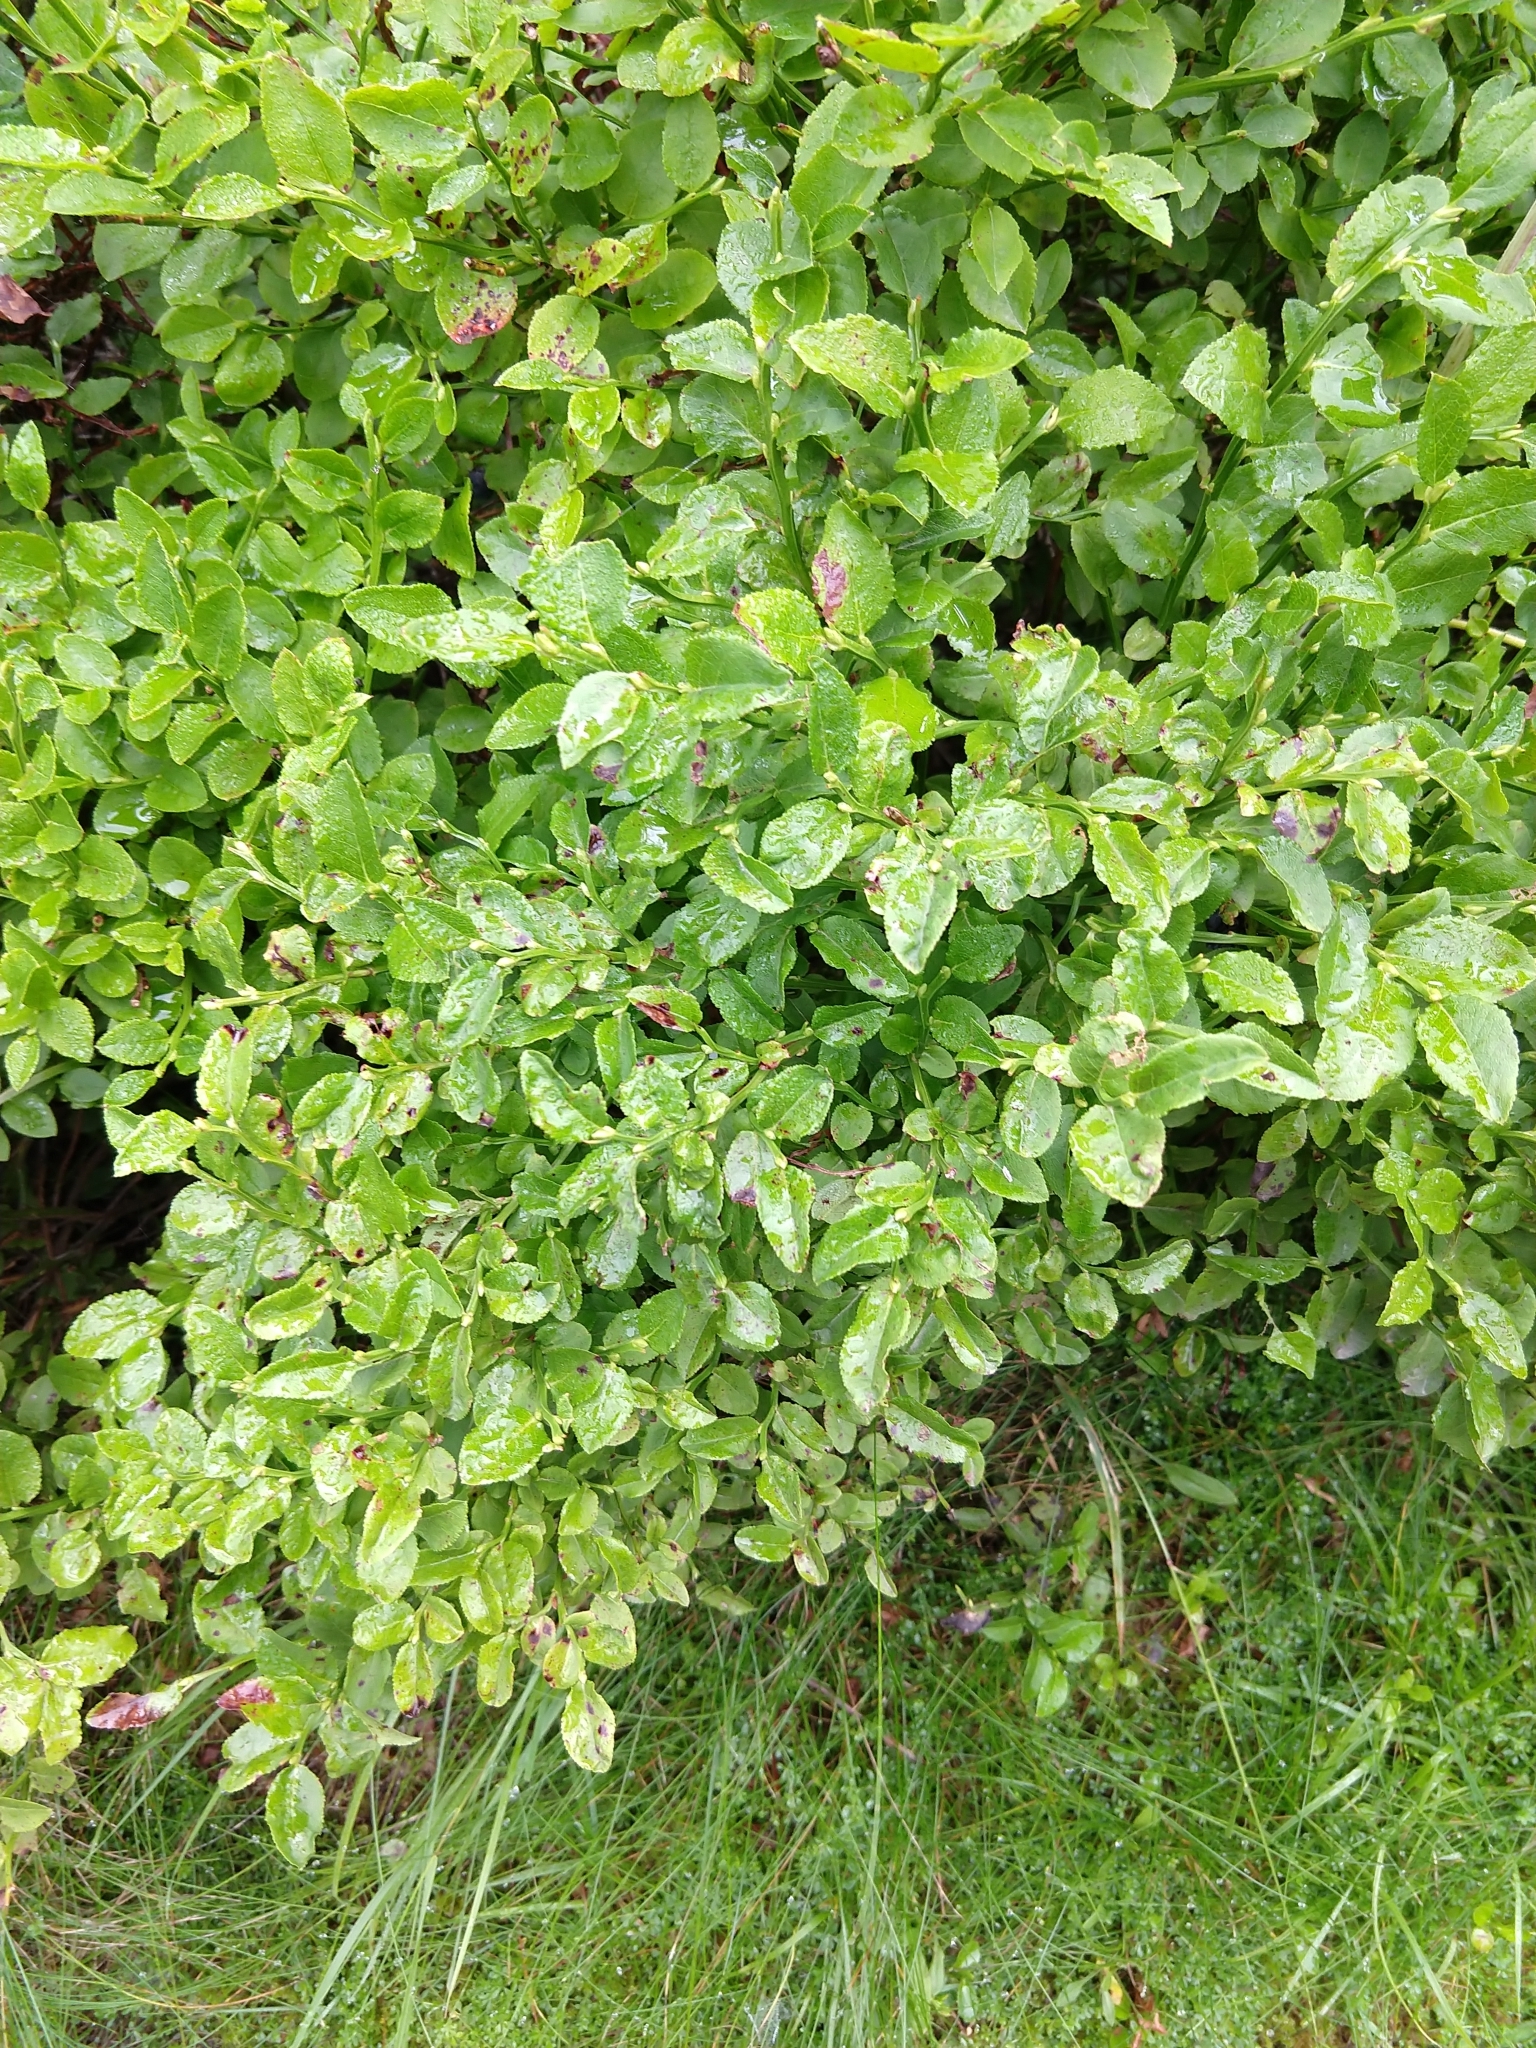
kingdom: Plantae
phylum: Tracheophyta
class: Magnoliopsida
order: Ericales
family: Ericaceae
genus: Vaccinium
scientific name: Vaccinium myrtillus
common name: Bilberry
